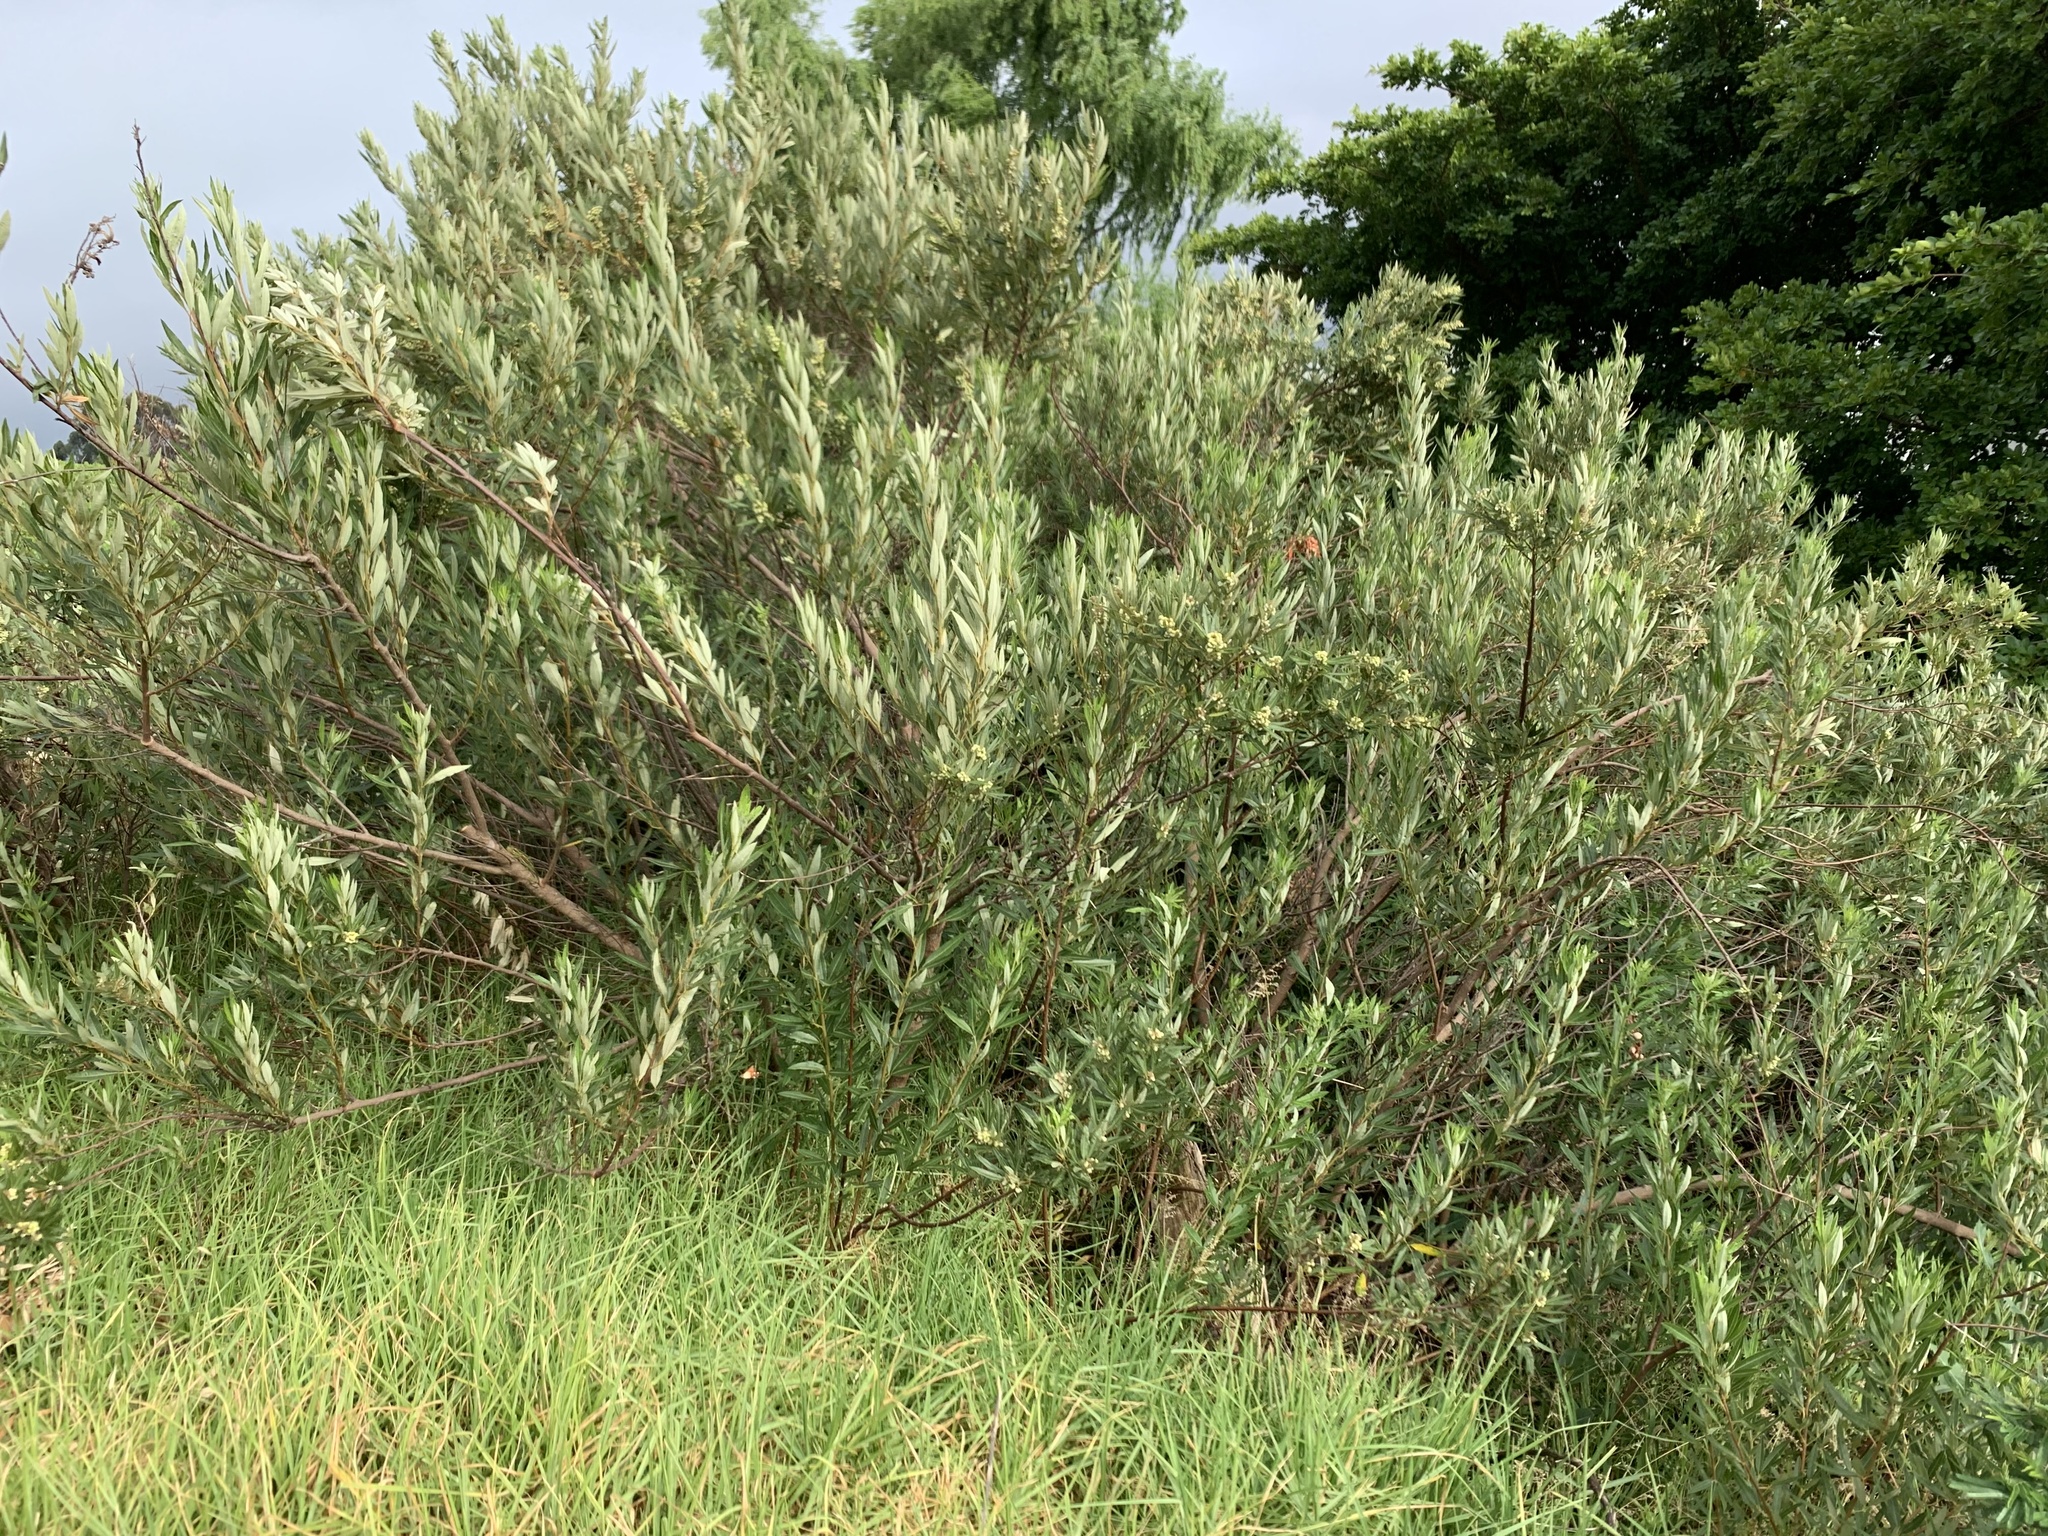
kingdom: Plantae
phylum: Tracheophyta
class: Magnoliopsida
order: Sapindales
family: Anacardiaceae
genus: Searsia
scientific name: Searsia angustifolia
